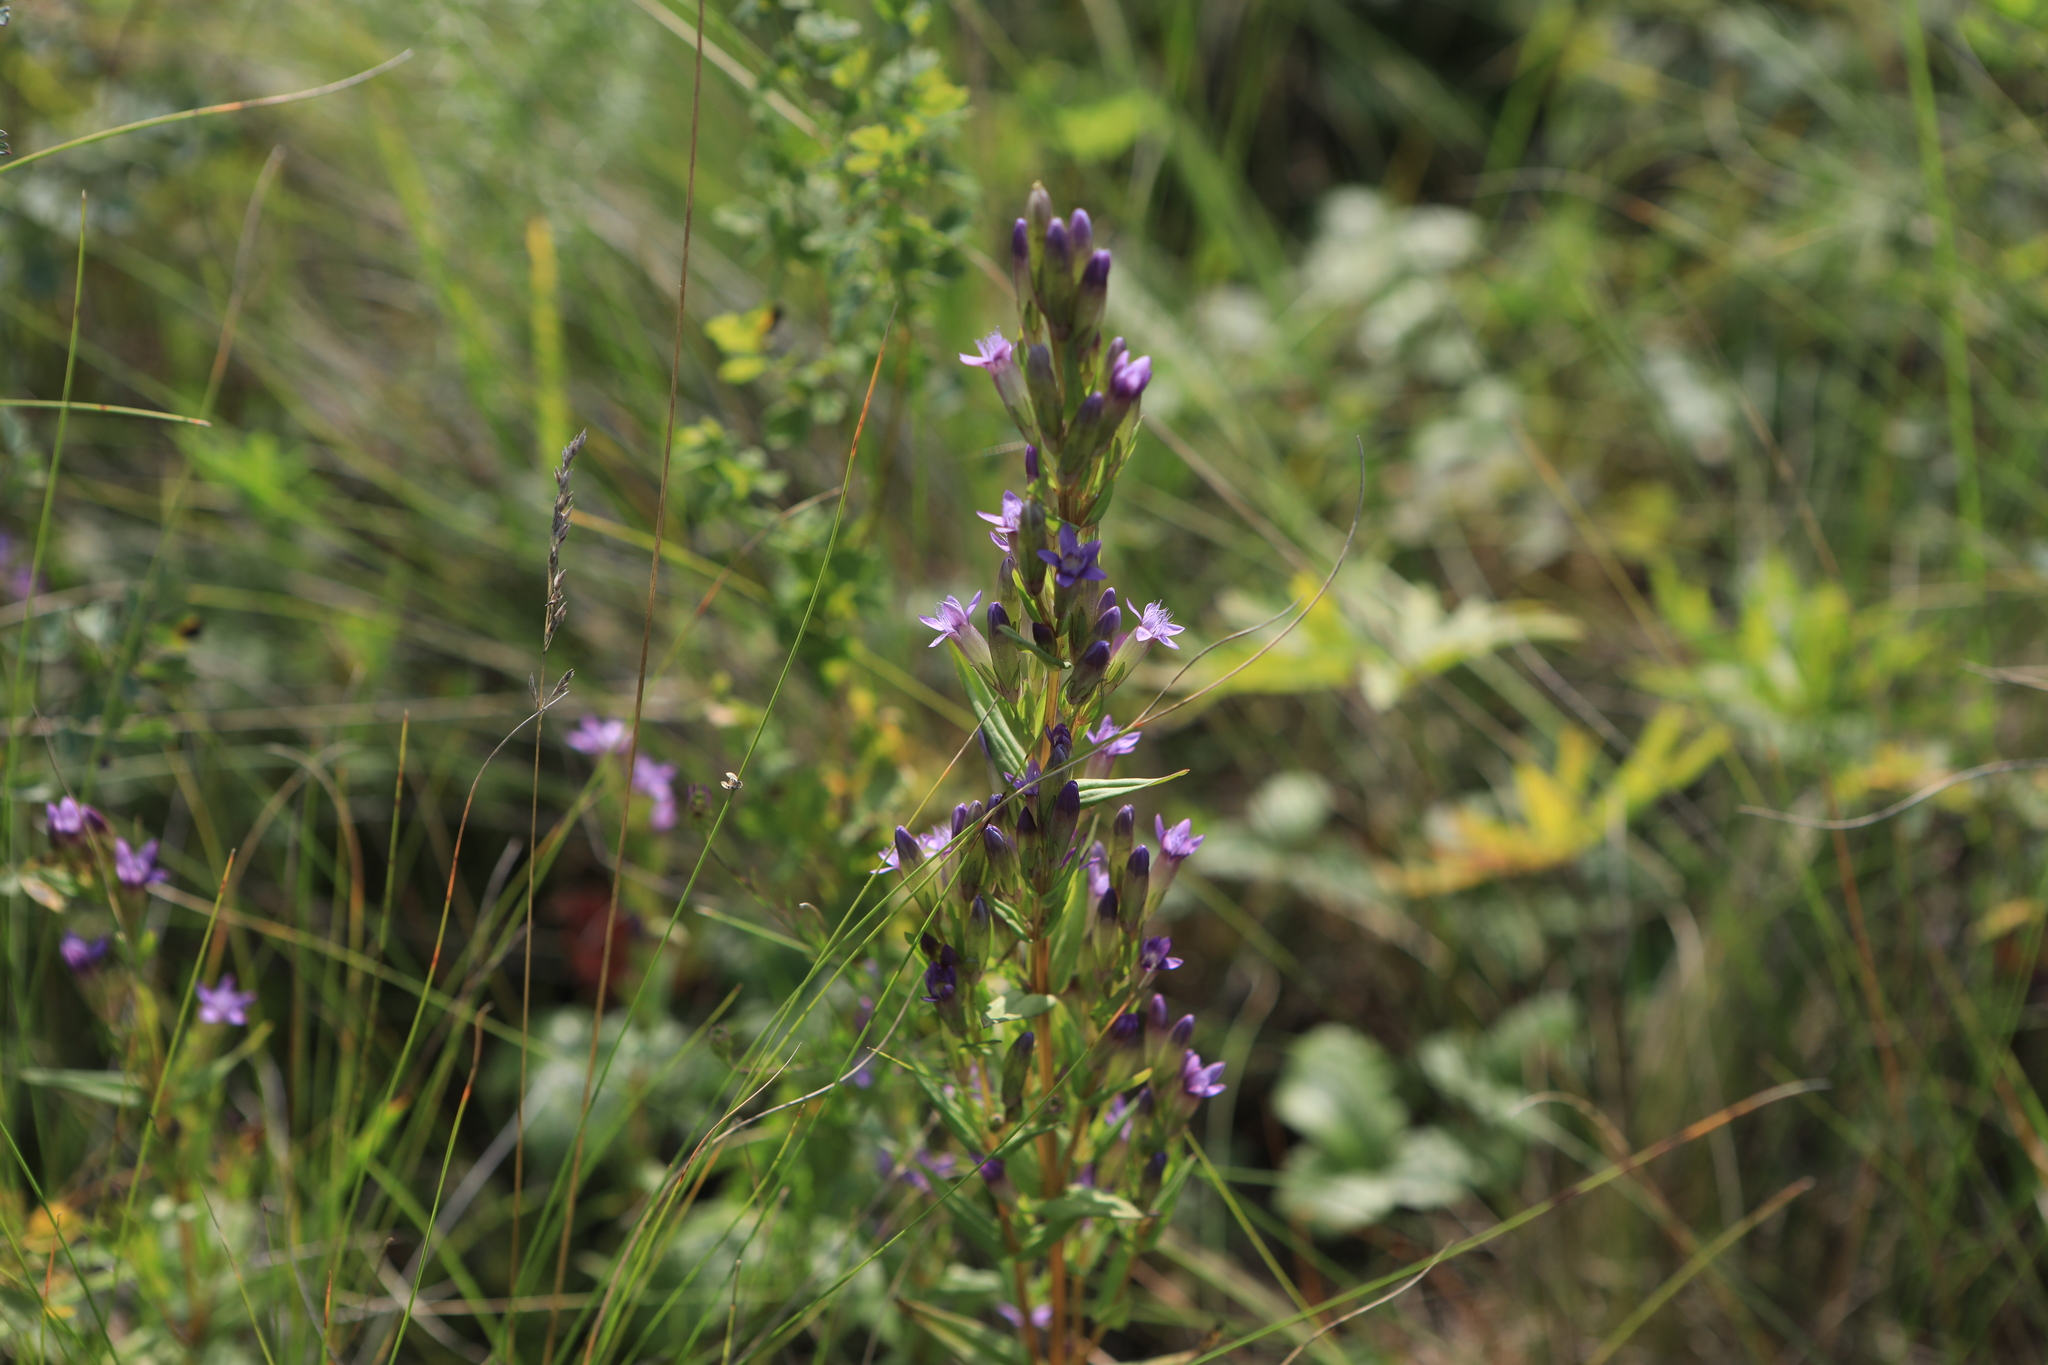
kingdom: Plantae
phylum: Tracheophyta
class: Magnoliopsida
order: Gentianales
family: Gentianaceae
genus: Gentianella
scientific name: Gentianella amarella
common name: Autumn gentian
